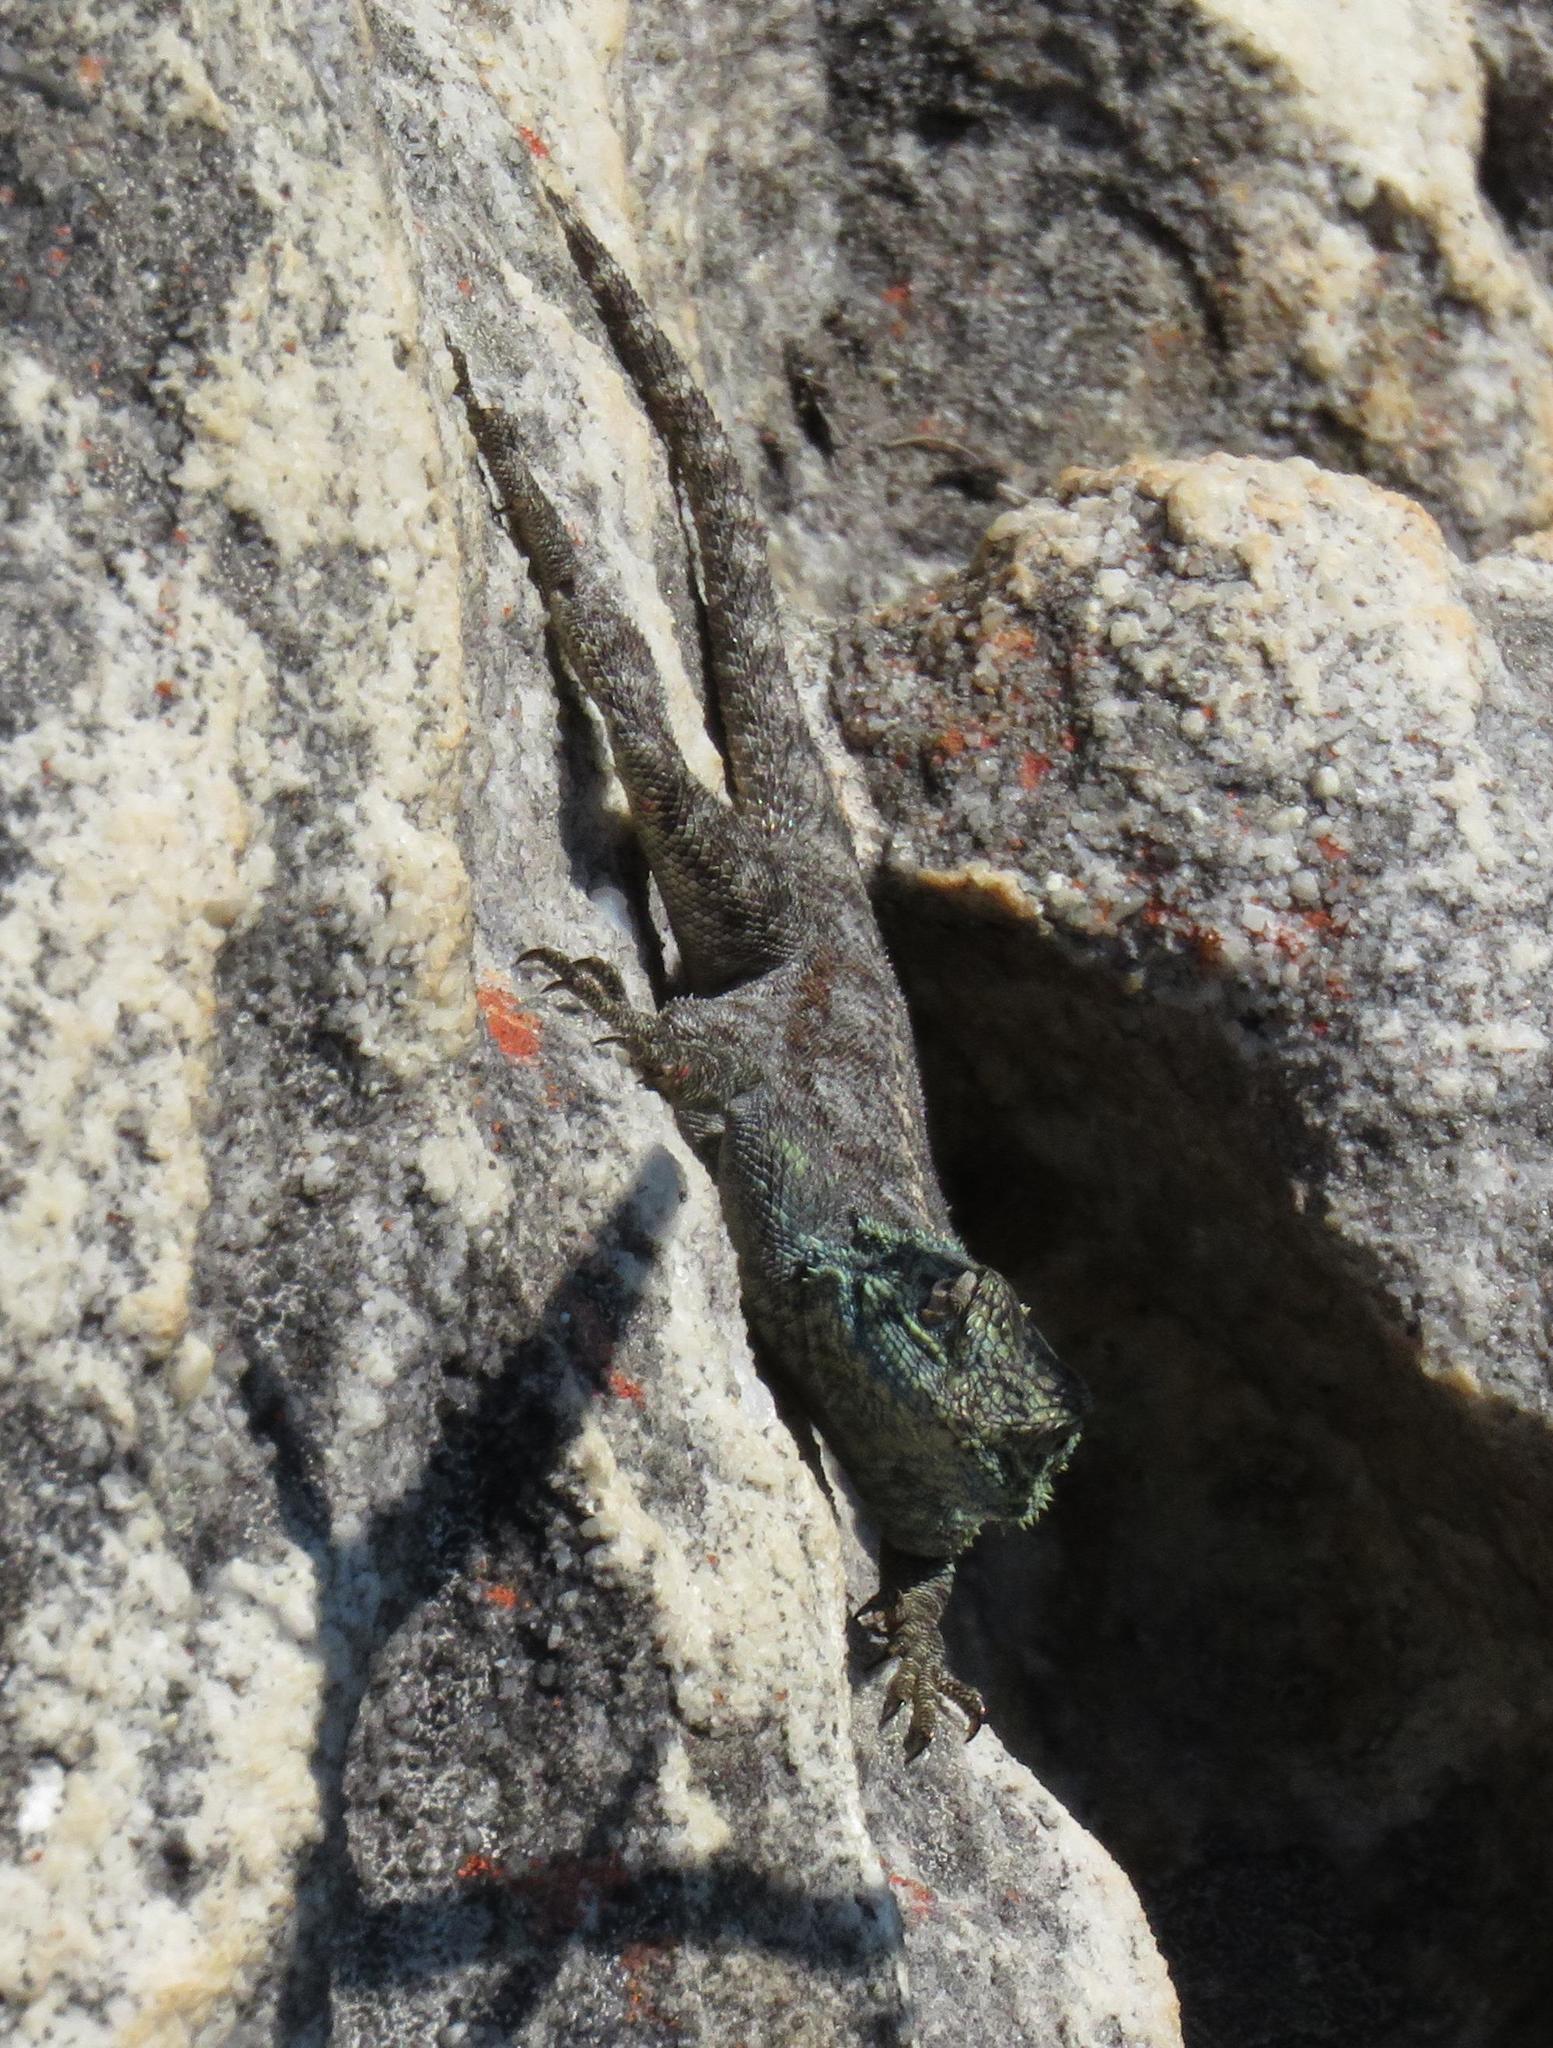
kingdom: Animalia
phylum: Chordata
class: Squamata
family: Agamidae
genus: Agama
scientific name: Agama atra
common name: Southern african rock agama
